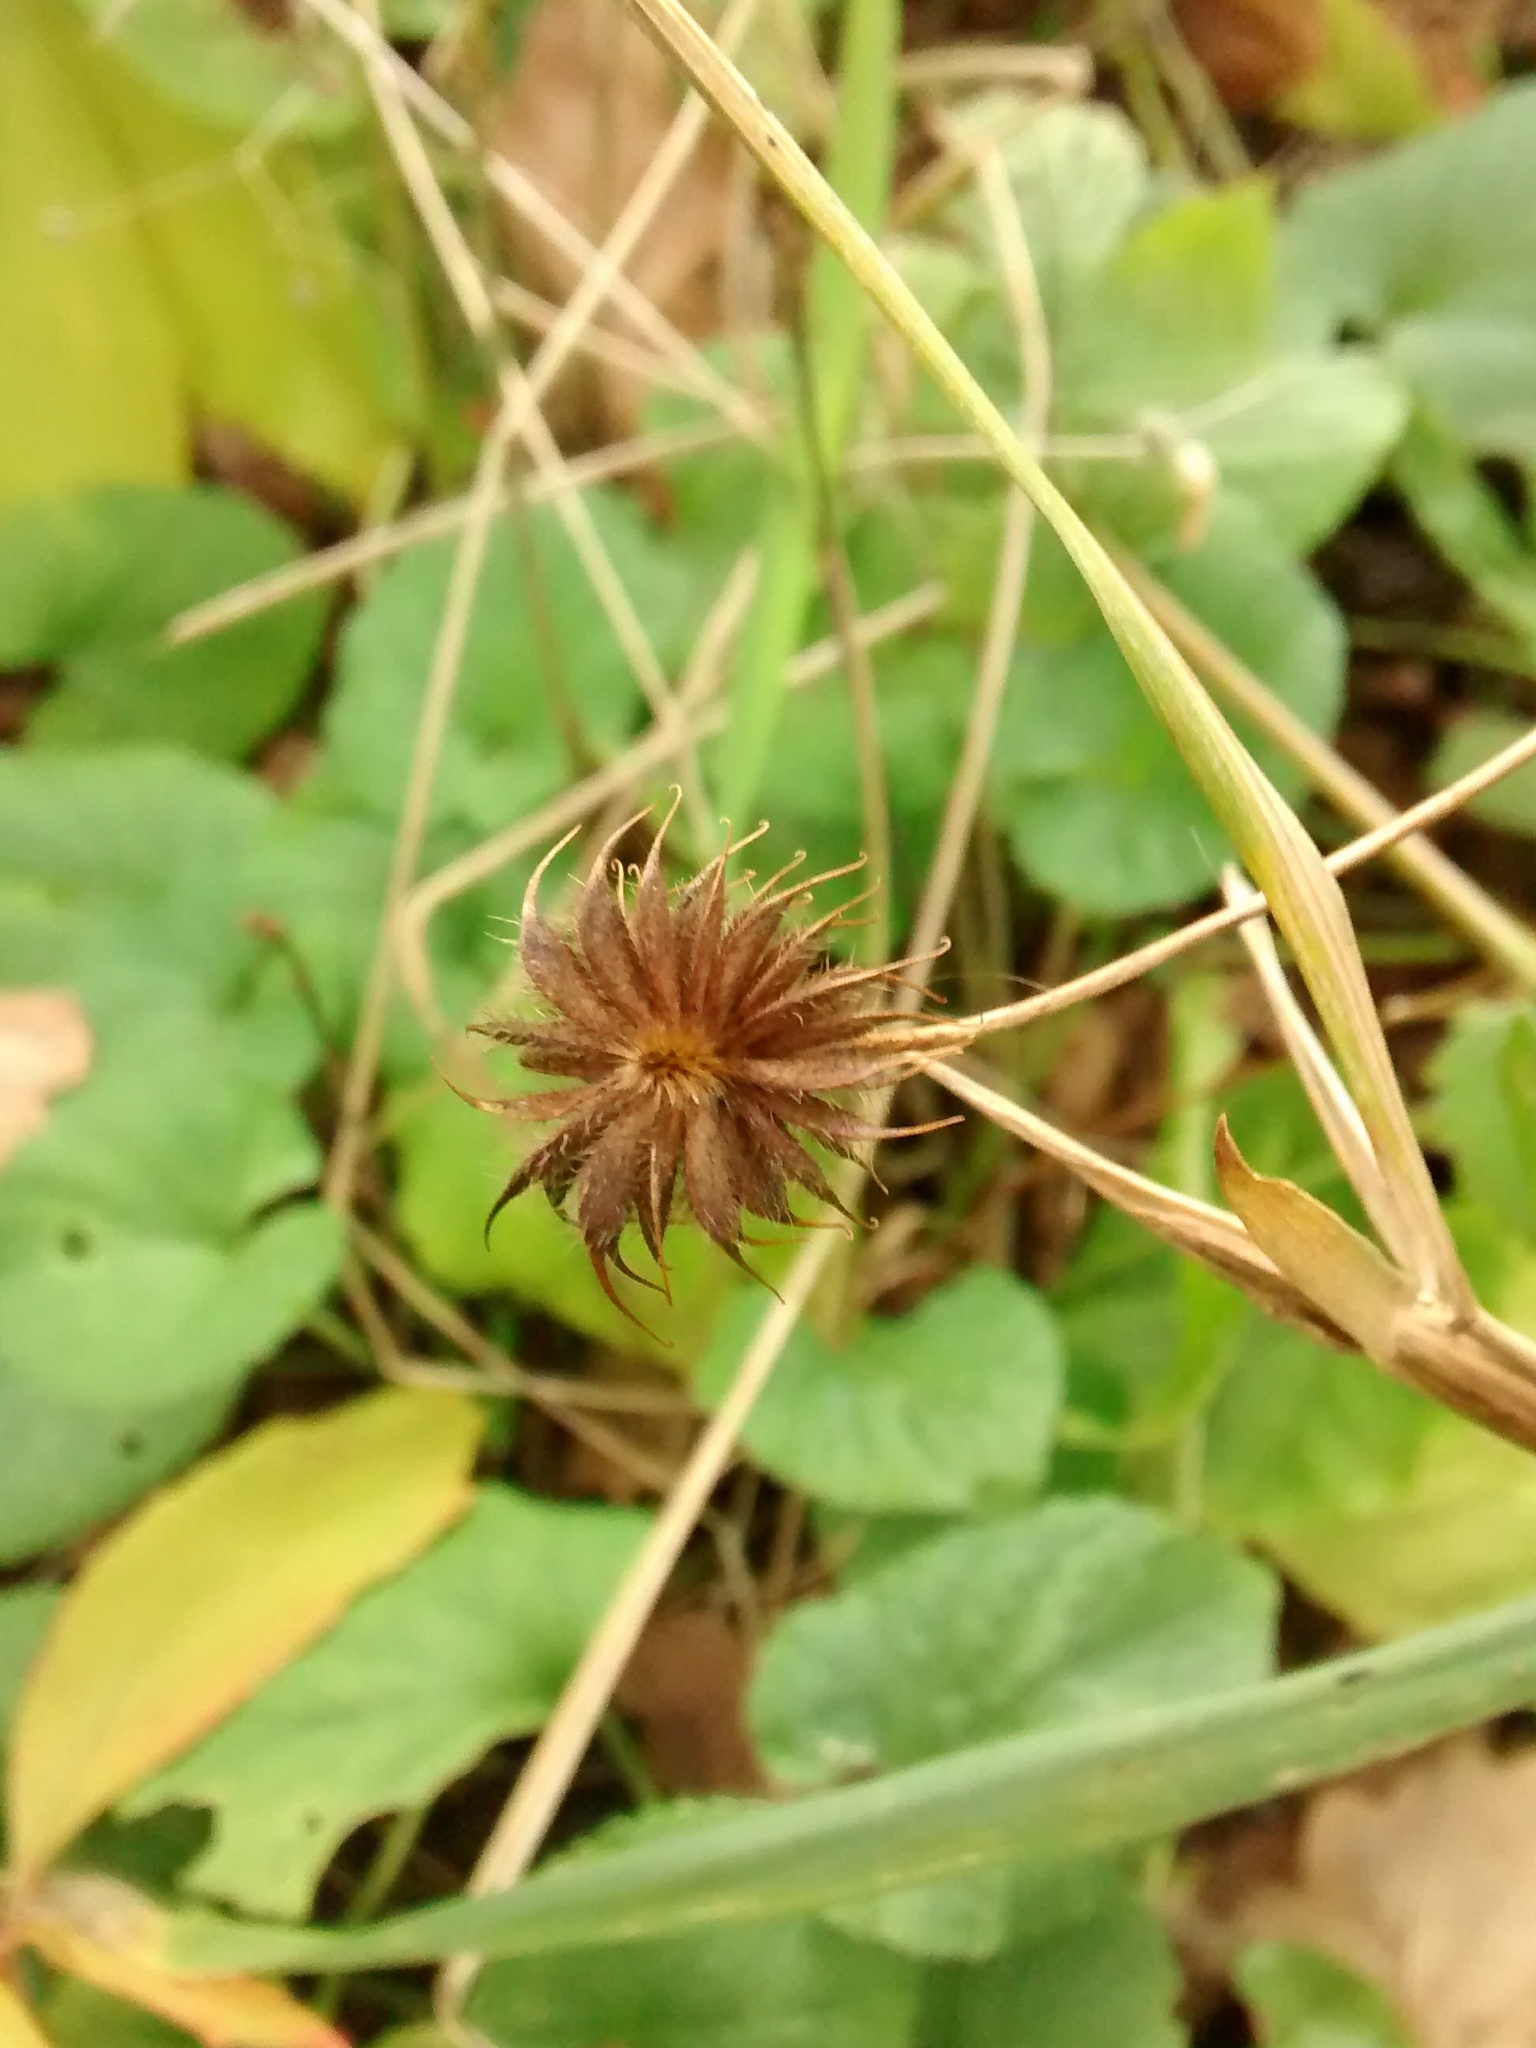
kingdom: Plantae
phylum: Tracheophyta
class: Magnoliopsida
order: Rosales
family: Rosaceae
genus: Geum
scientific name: Geum urbanum
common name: Wood avens
